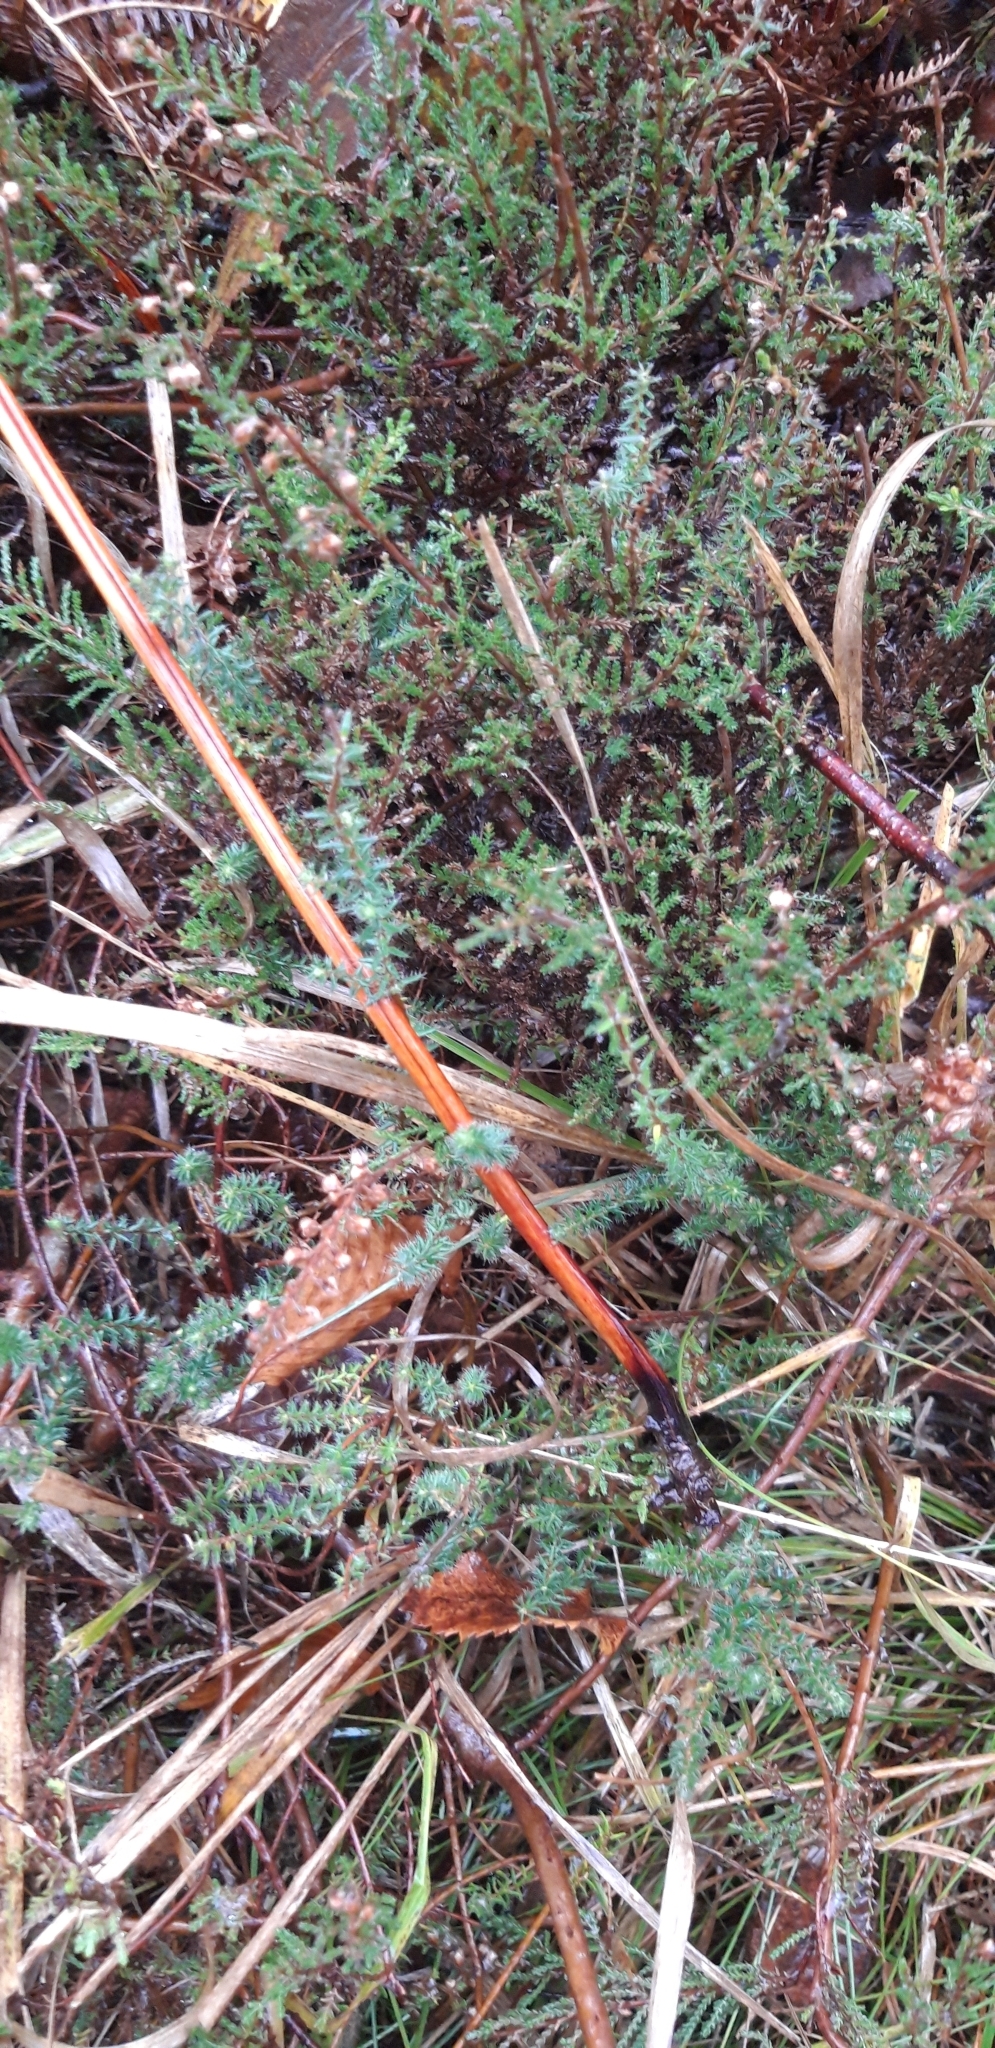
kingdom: Plantae
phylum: Tracheophyta
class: Magnoliopsida
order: Ericales
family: Ericaceae
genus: Erica
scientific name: Erica tetralix
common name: Cross-leaved heath
